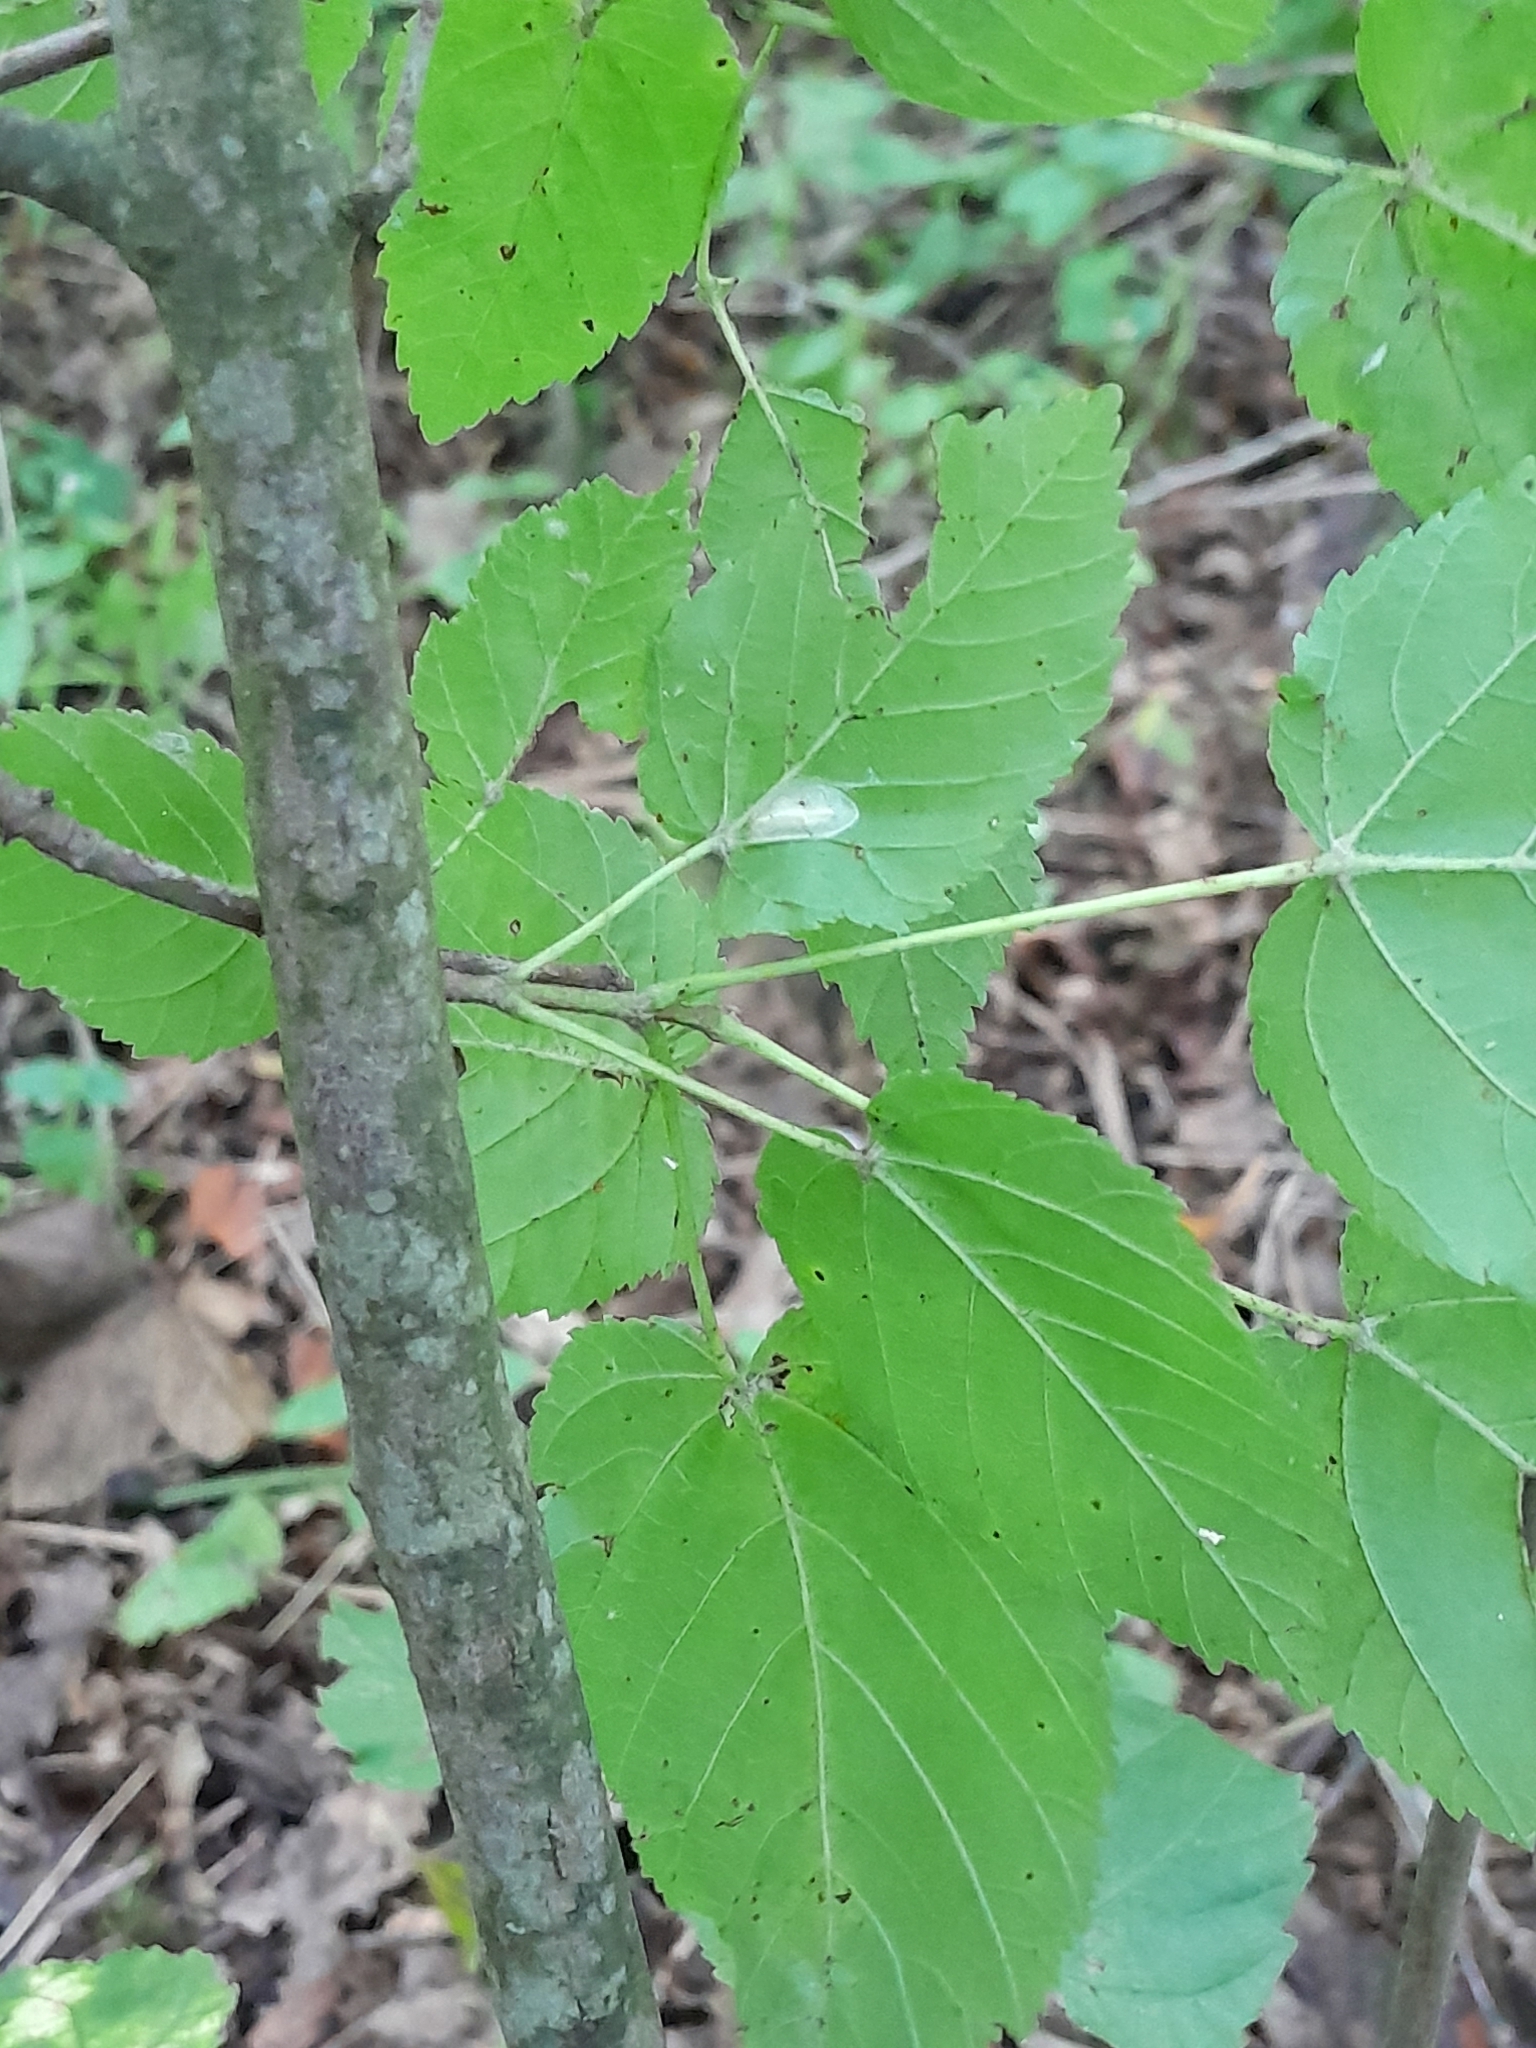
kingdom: Plantae
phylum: Tracheophyta
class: Magnoliopsida
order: Sapindales
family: Sapindaceae
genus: Acer
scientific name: Acer tataricum
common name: Tartar maple
